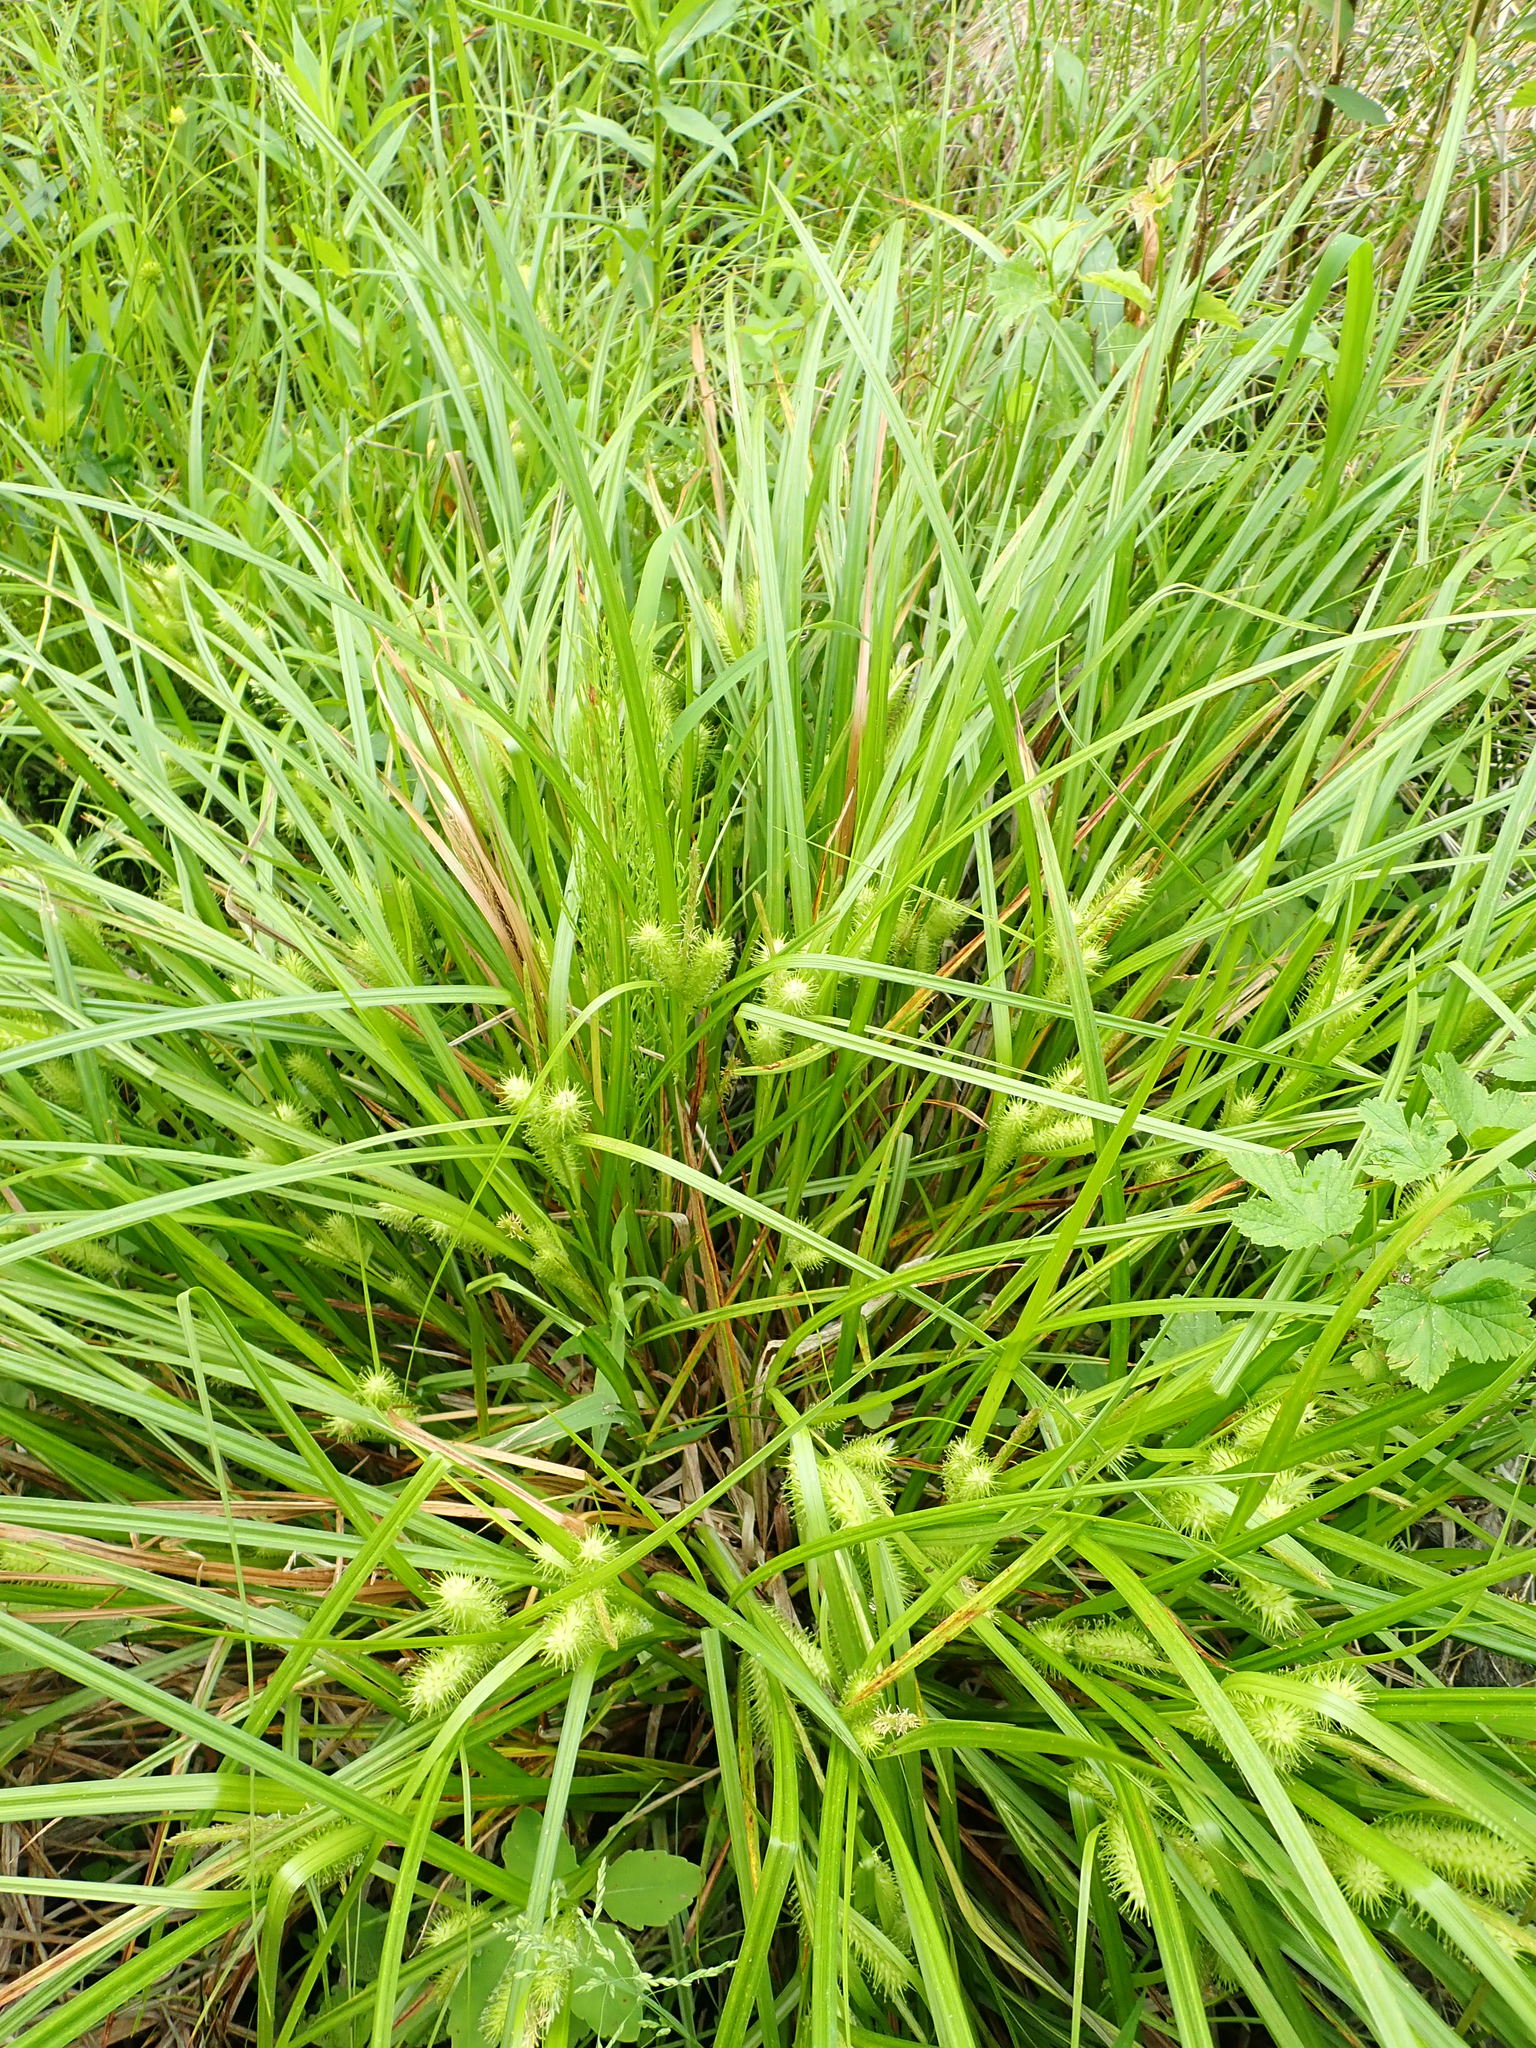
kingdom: Plantae
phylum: Tracheophyta
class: Liliopsida
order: Poales
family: Cyperaceae
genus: Carex
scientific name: Carex lurida
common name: Sallow sedge
